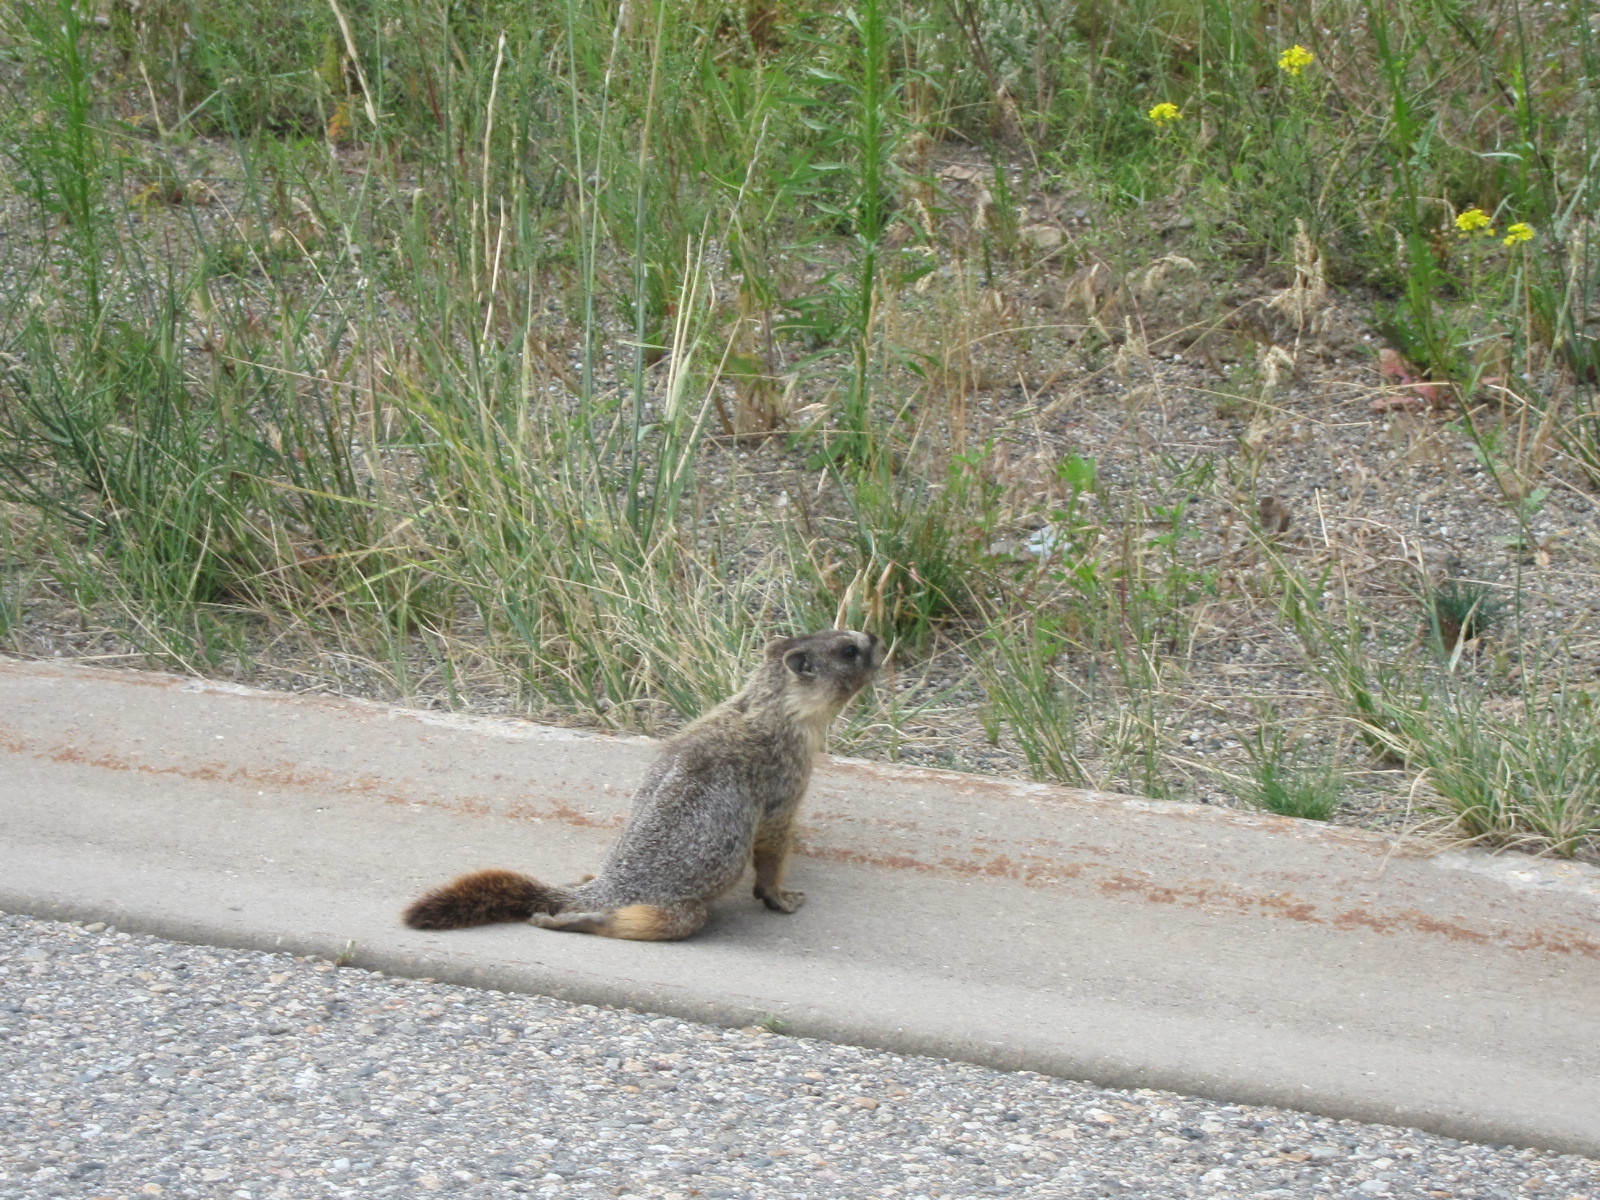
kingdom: Animalia
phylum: Chordata
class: Mammalia
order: Rodentia
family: Sciuridae
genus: Marmota
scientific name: Marmota flaviventris
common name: Yellow-bellied marmot
